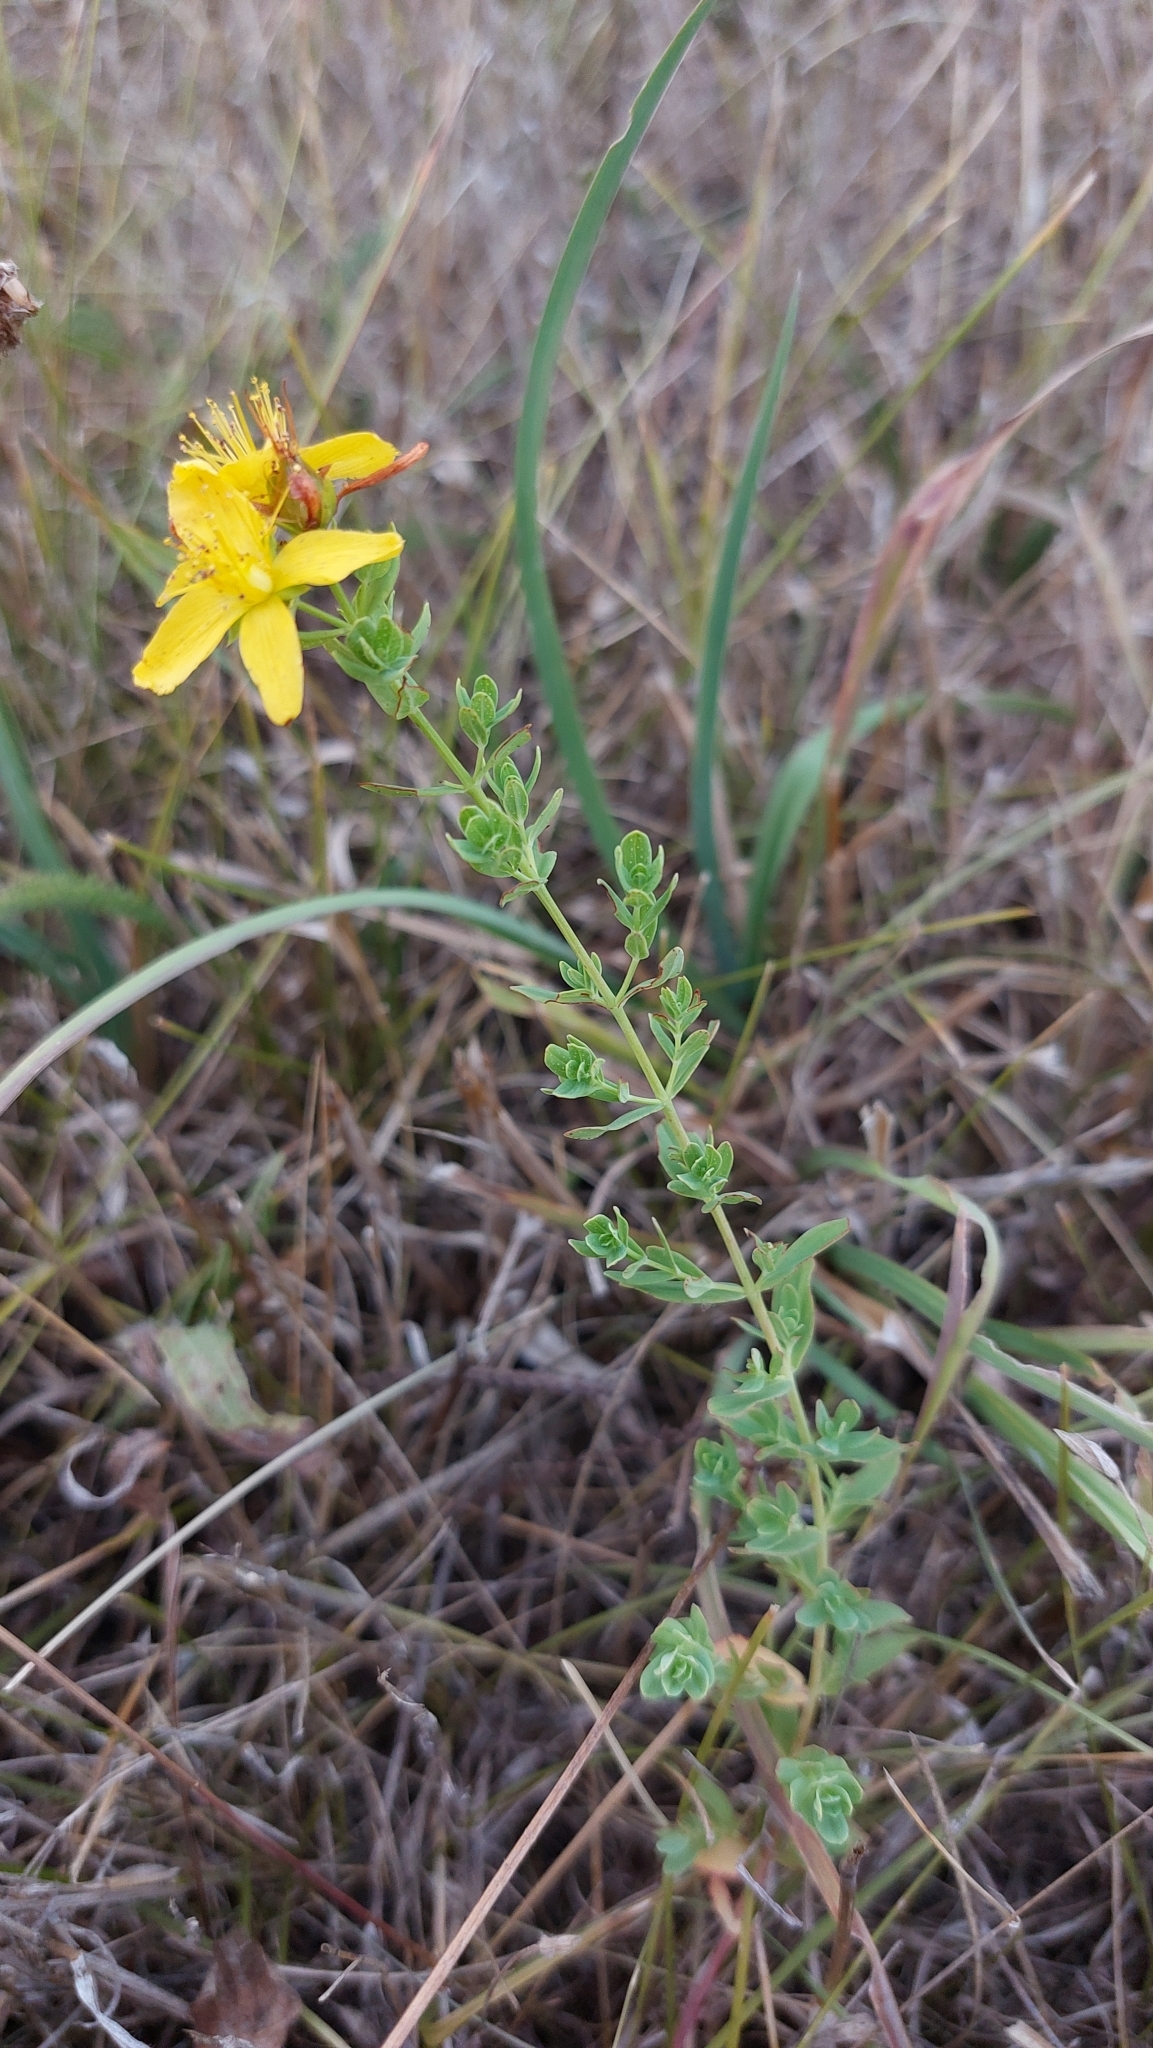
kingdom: Plantae
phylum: Tracheophyta
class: Magnoliopsida
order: Malpighiales
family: Hypericaceae
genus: Hypericum
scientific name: Hypericum perforatum
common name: Common st. johnswort
